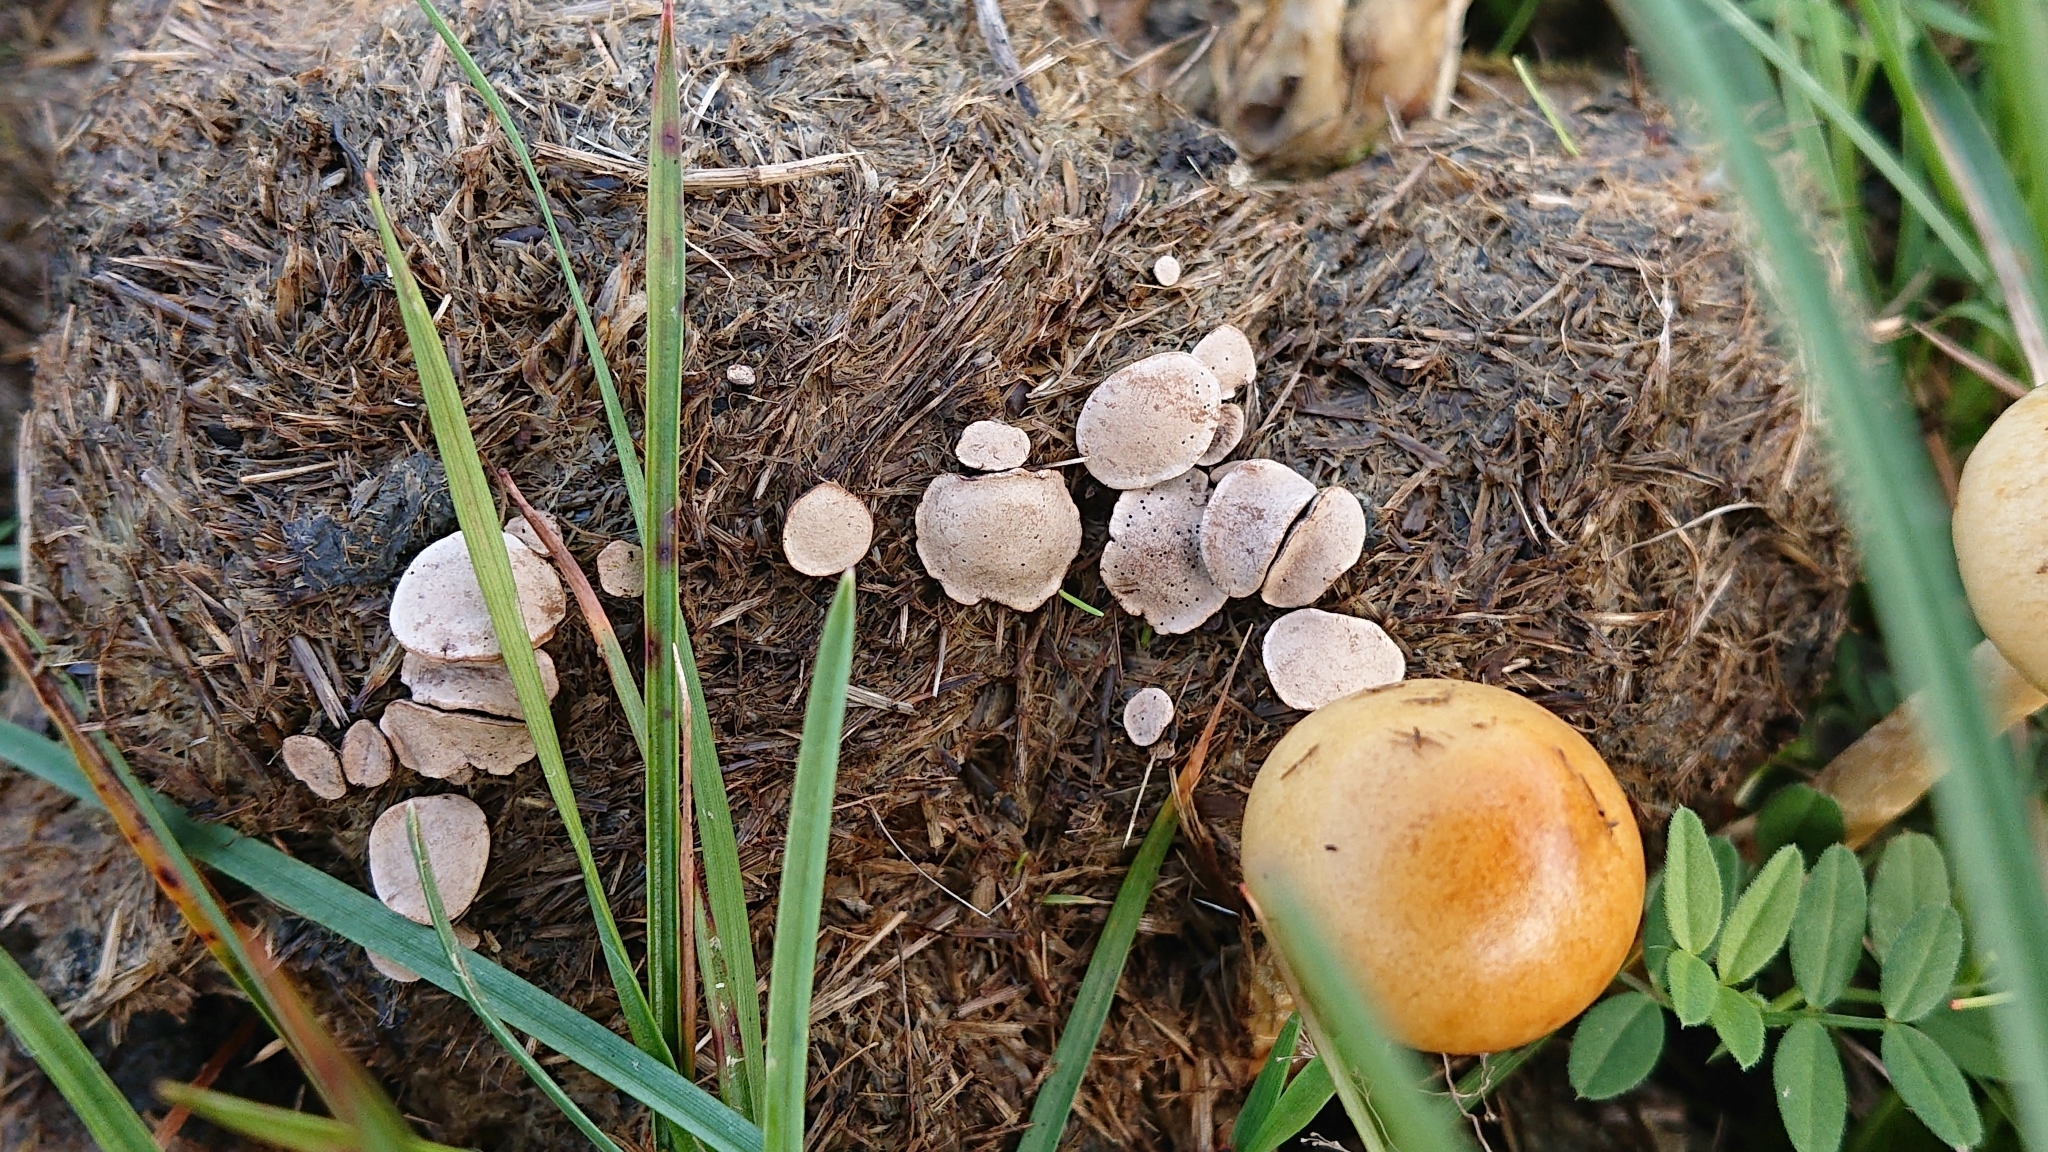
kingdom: Fungi
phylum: Ascomycota
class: Sordariomycetes
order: Xylariales
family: Xylariaceae
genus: Poronia
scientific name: Poronia punctata
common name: Nail fungus
